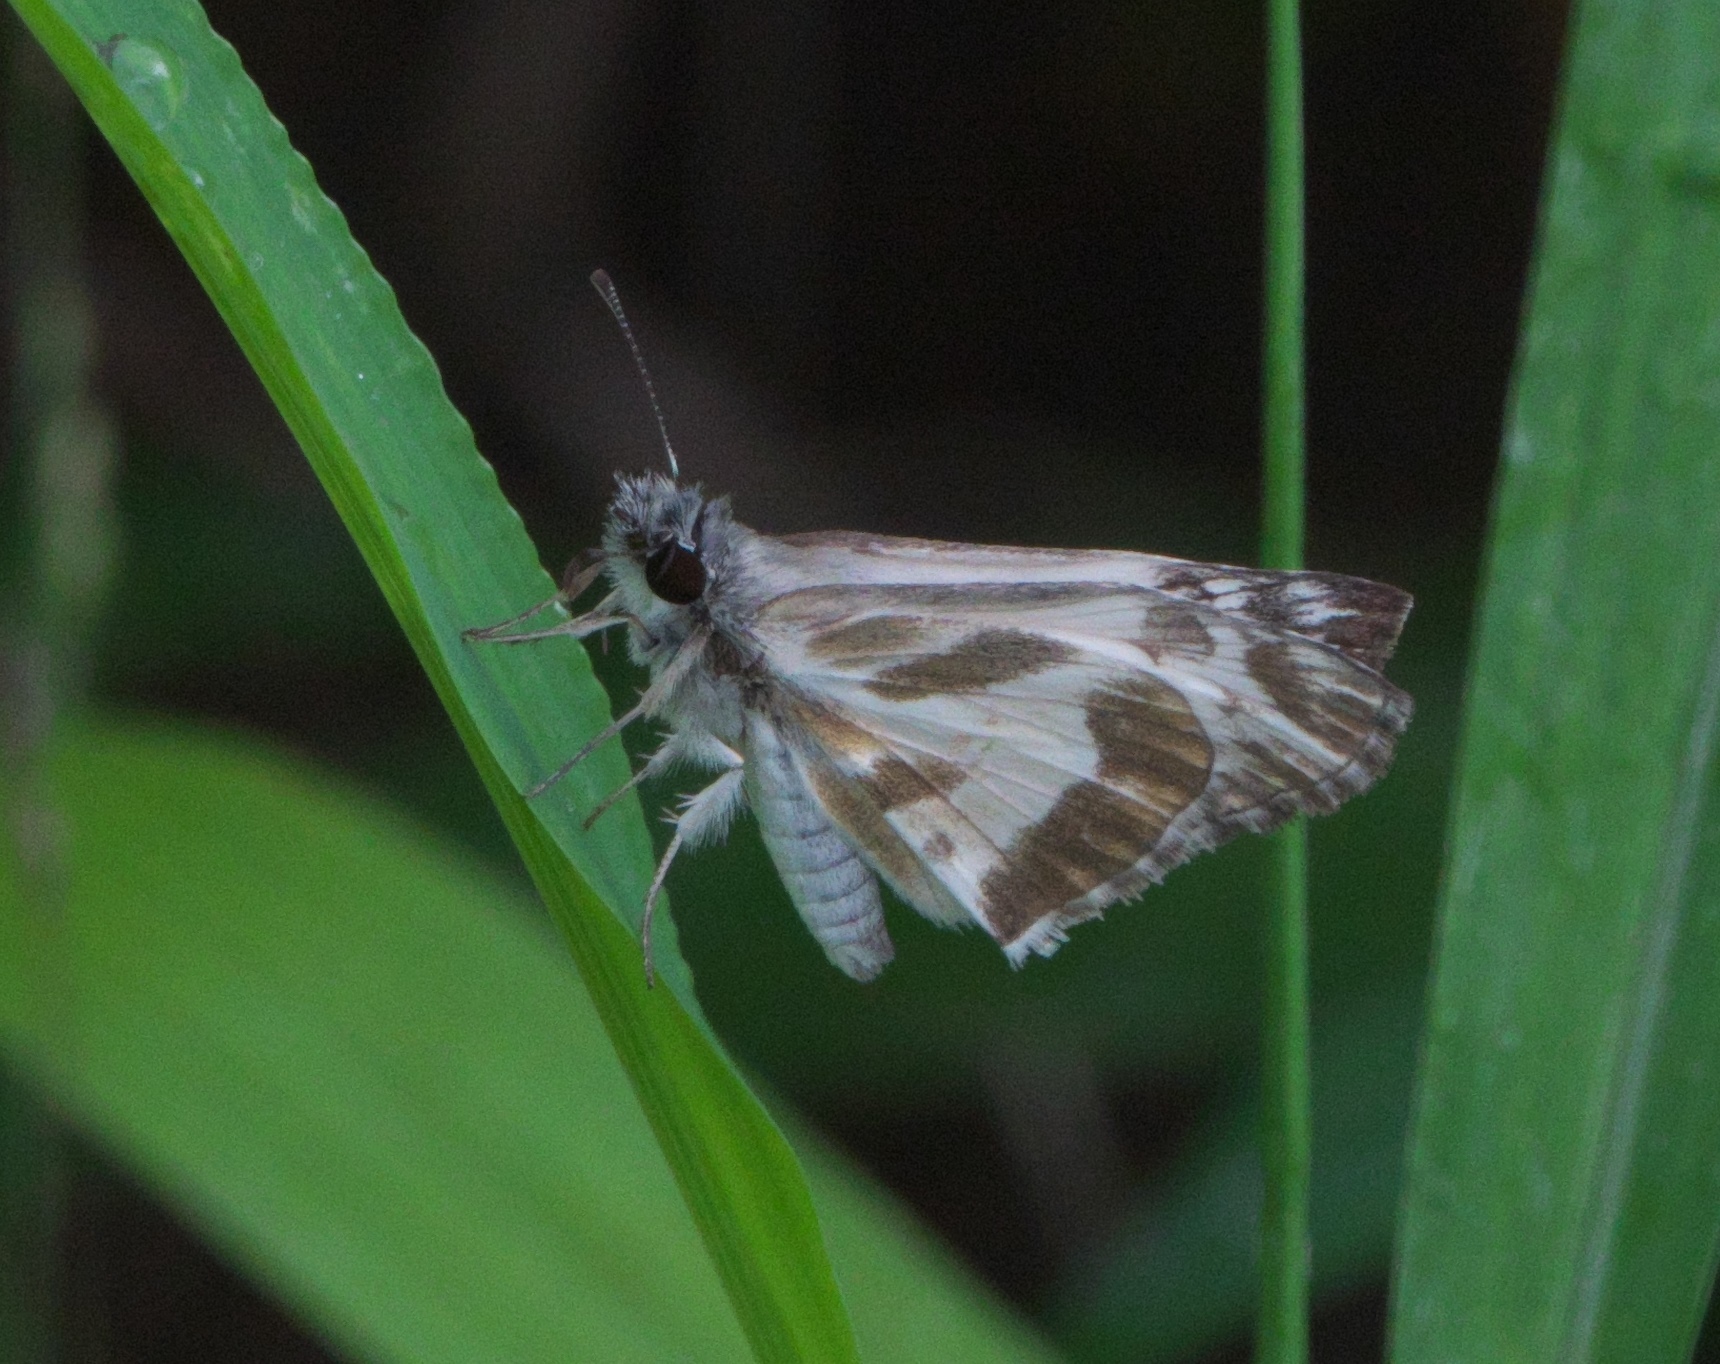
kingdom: Animalia
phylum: Arthropoda
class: Insecta
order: Lepidoptera
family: Hesperiidae
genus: Heliopetes
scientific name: Heliopetes macaira
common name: Turk's-cap white-skipper
